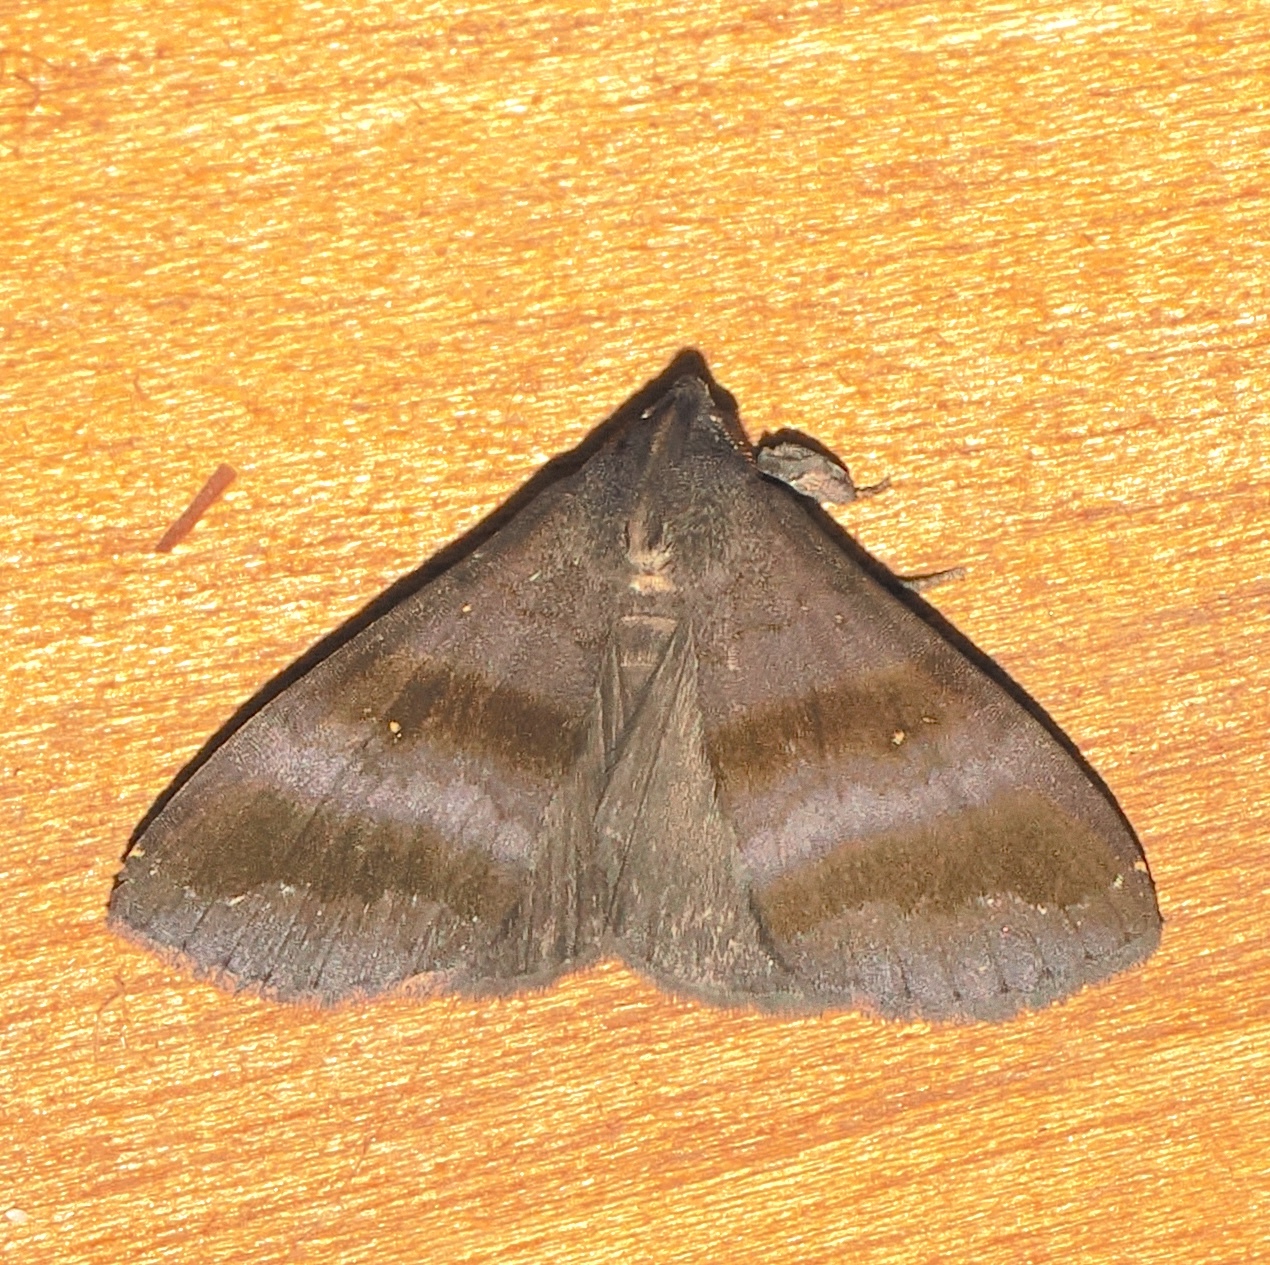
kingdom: Animalia
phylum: Arthropoda
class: Insecta
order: Lepidoptera
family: Erebidae
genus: Rejectaria
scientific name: Rejectaria lysandria
